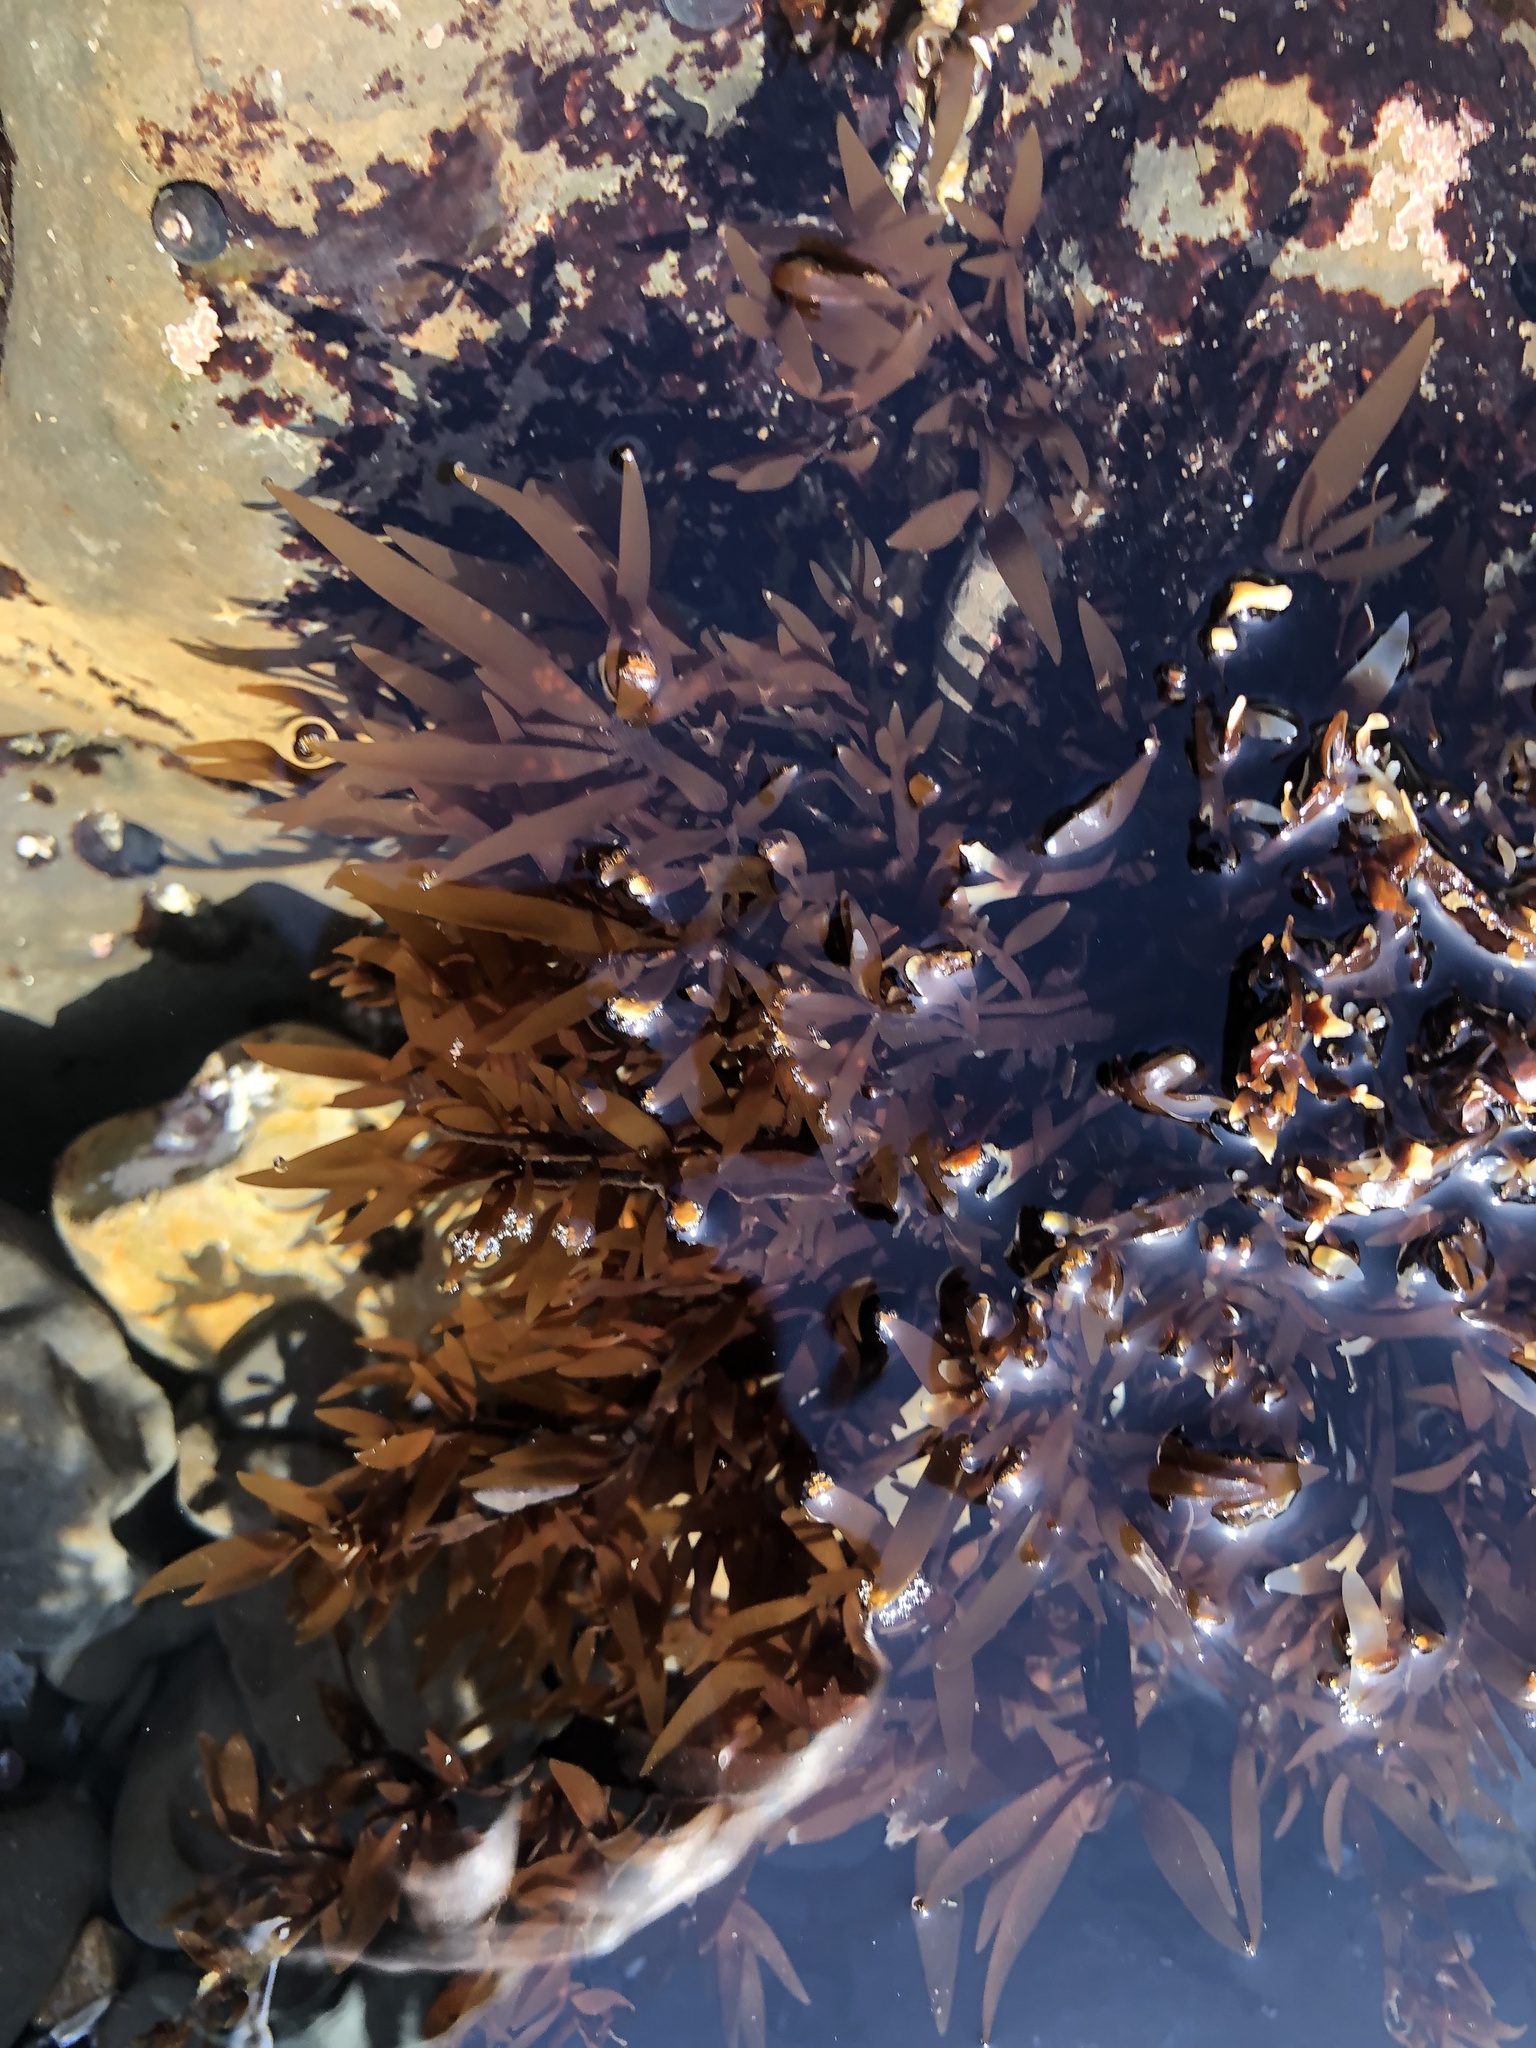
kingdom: Plantae
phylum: Rhodophyta
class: Florideophyceae
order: Halymeniales
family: Halymeniaceae
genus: Grateloupia
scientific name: Grateloupia Prionitis lanceolata
